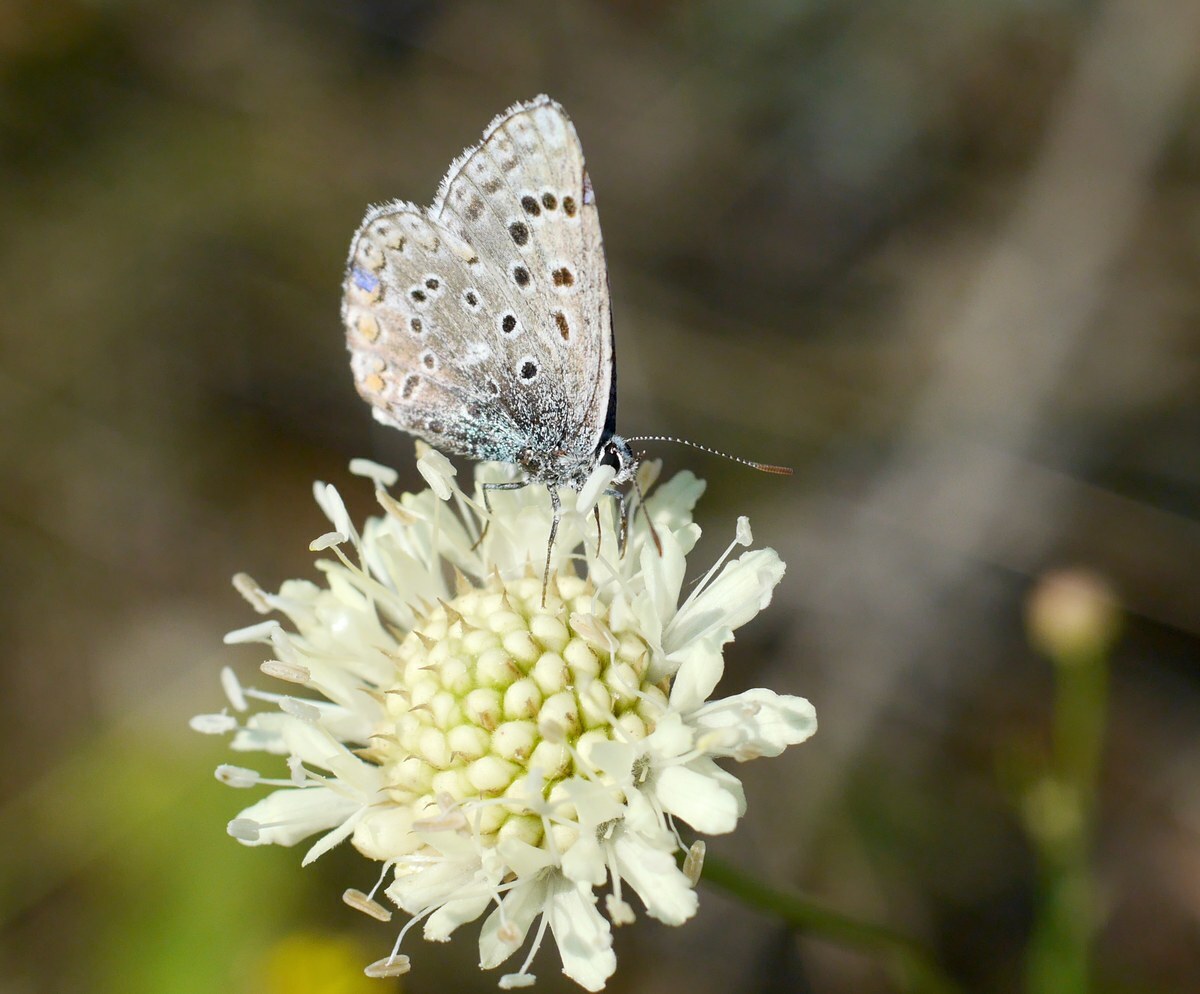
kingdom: Animalia
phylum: Arthropoda
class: Insecta
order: Lepidoptera
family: Lycaenidae
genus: Lysandra
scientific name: Lysandra bellargus
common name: Adonis blue
